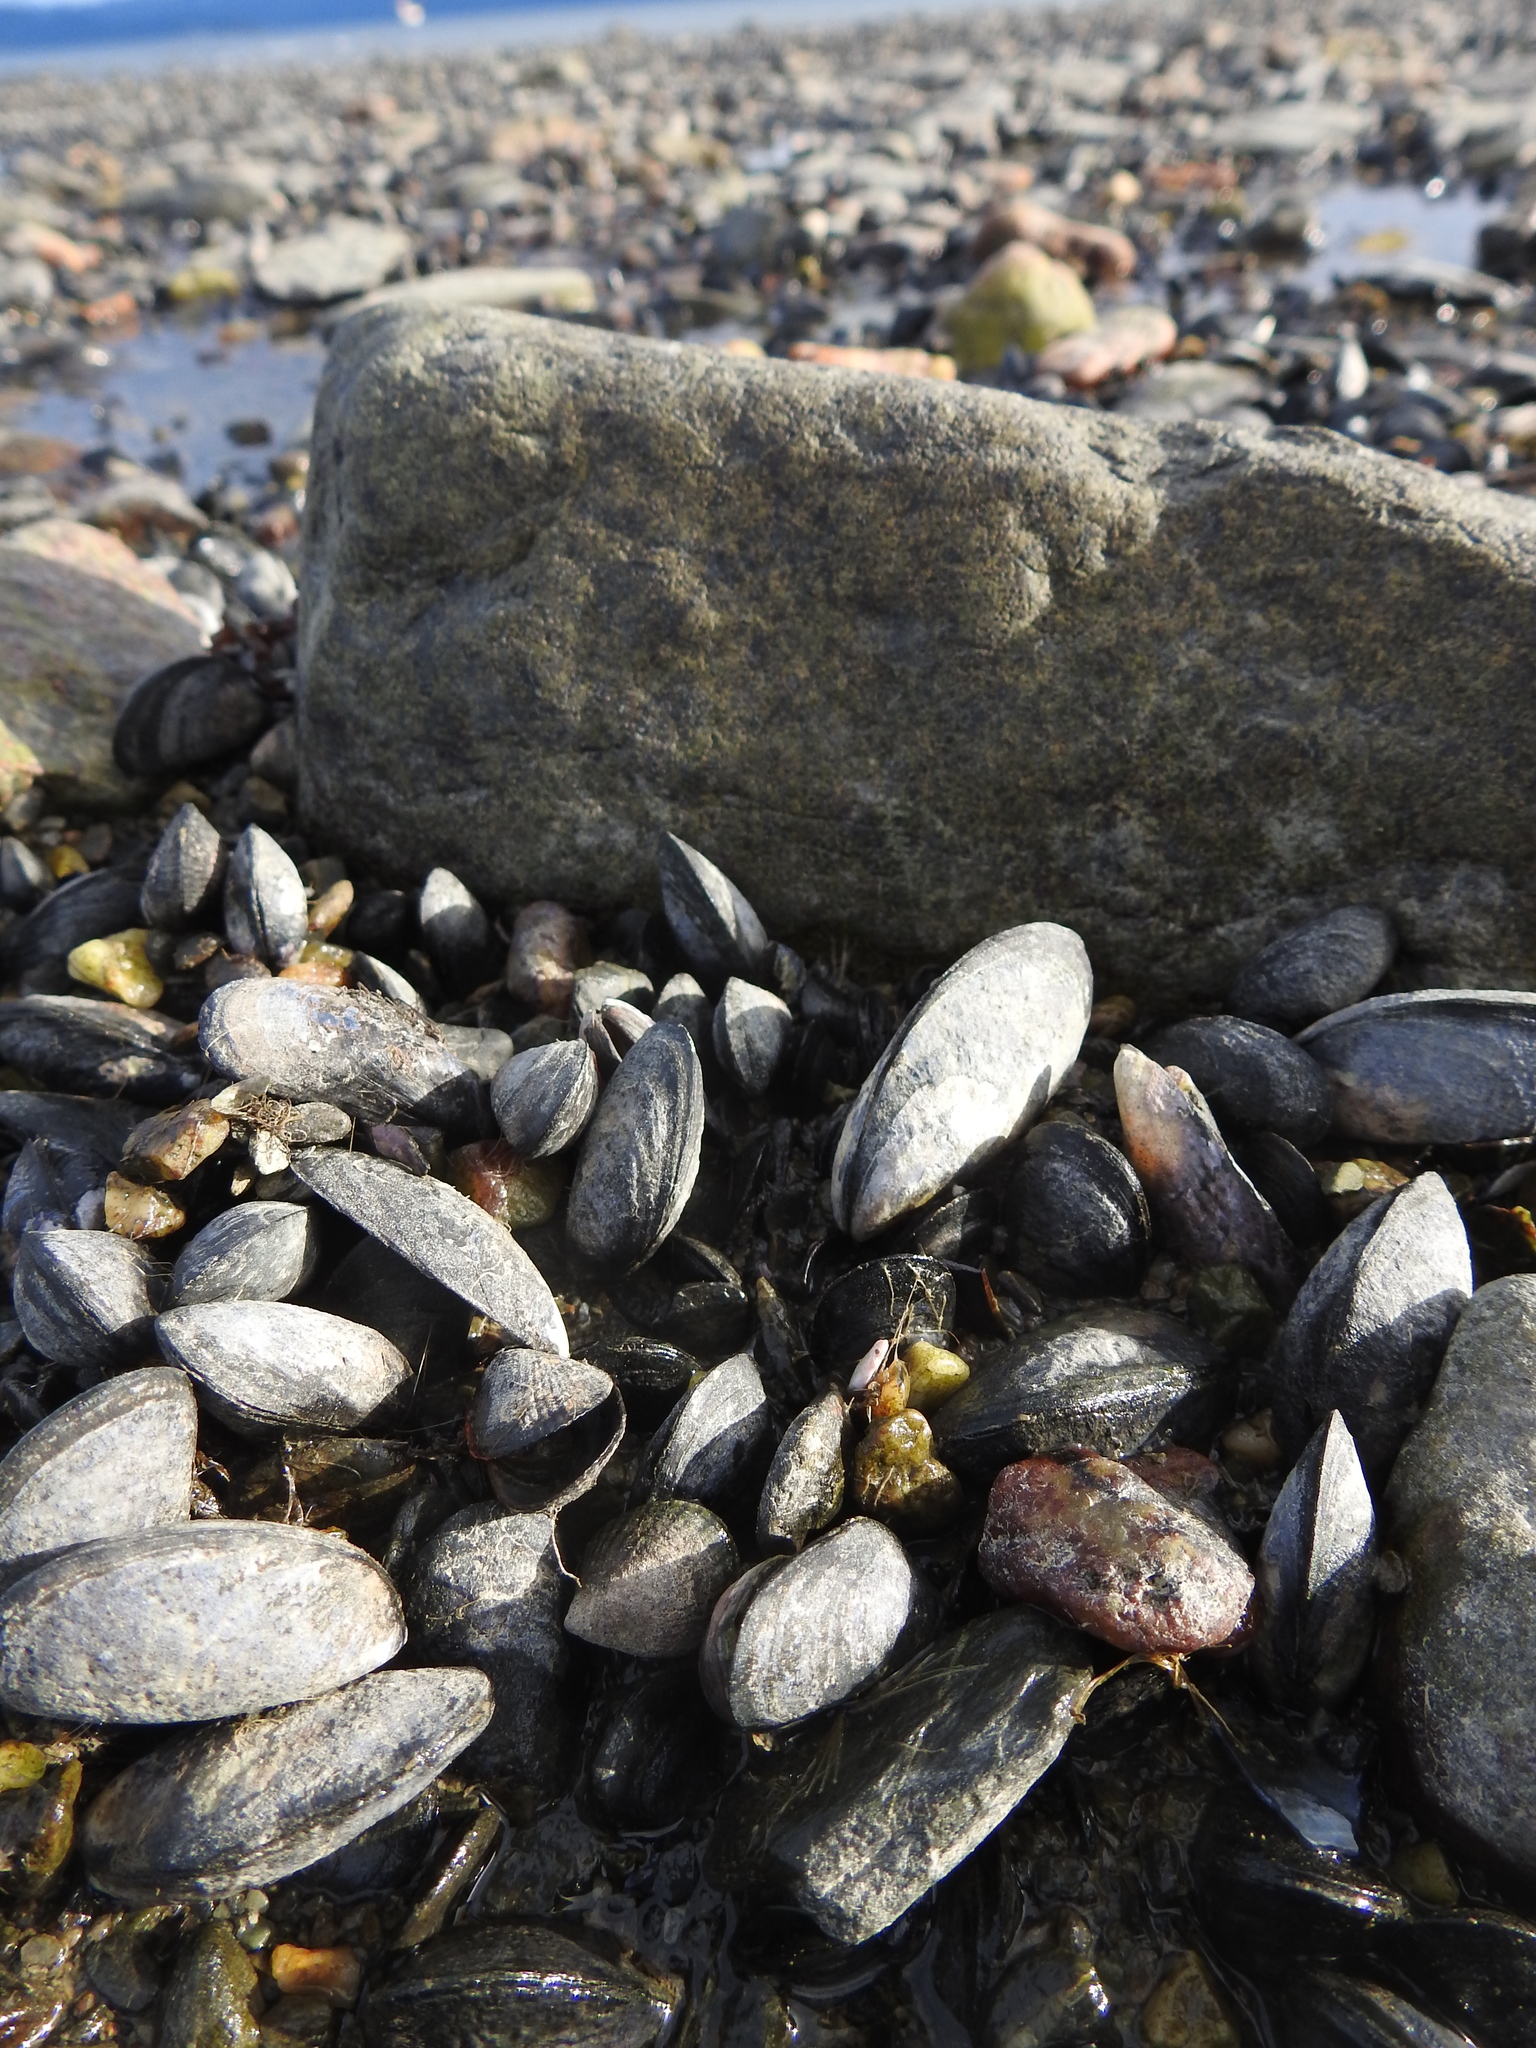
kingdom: Animalia
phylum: Mollusca
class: Bivalvia
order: Mytilida
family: Mytilidae
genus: Mytilus
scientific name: Mytilus chilensis
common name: Chilean mussel
